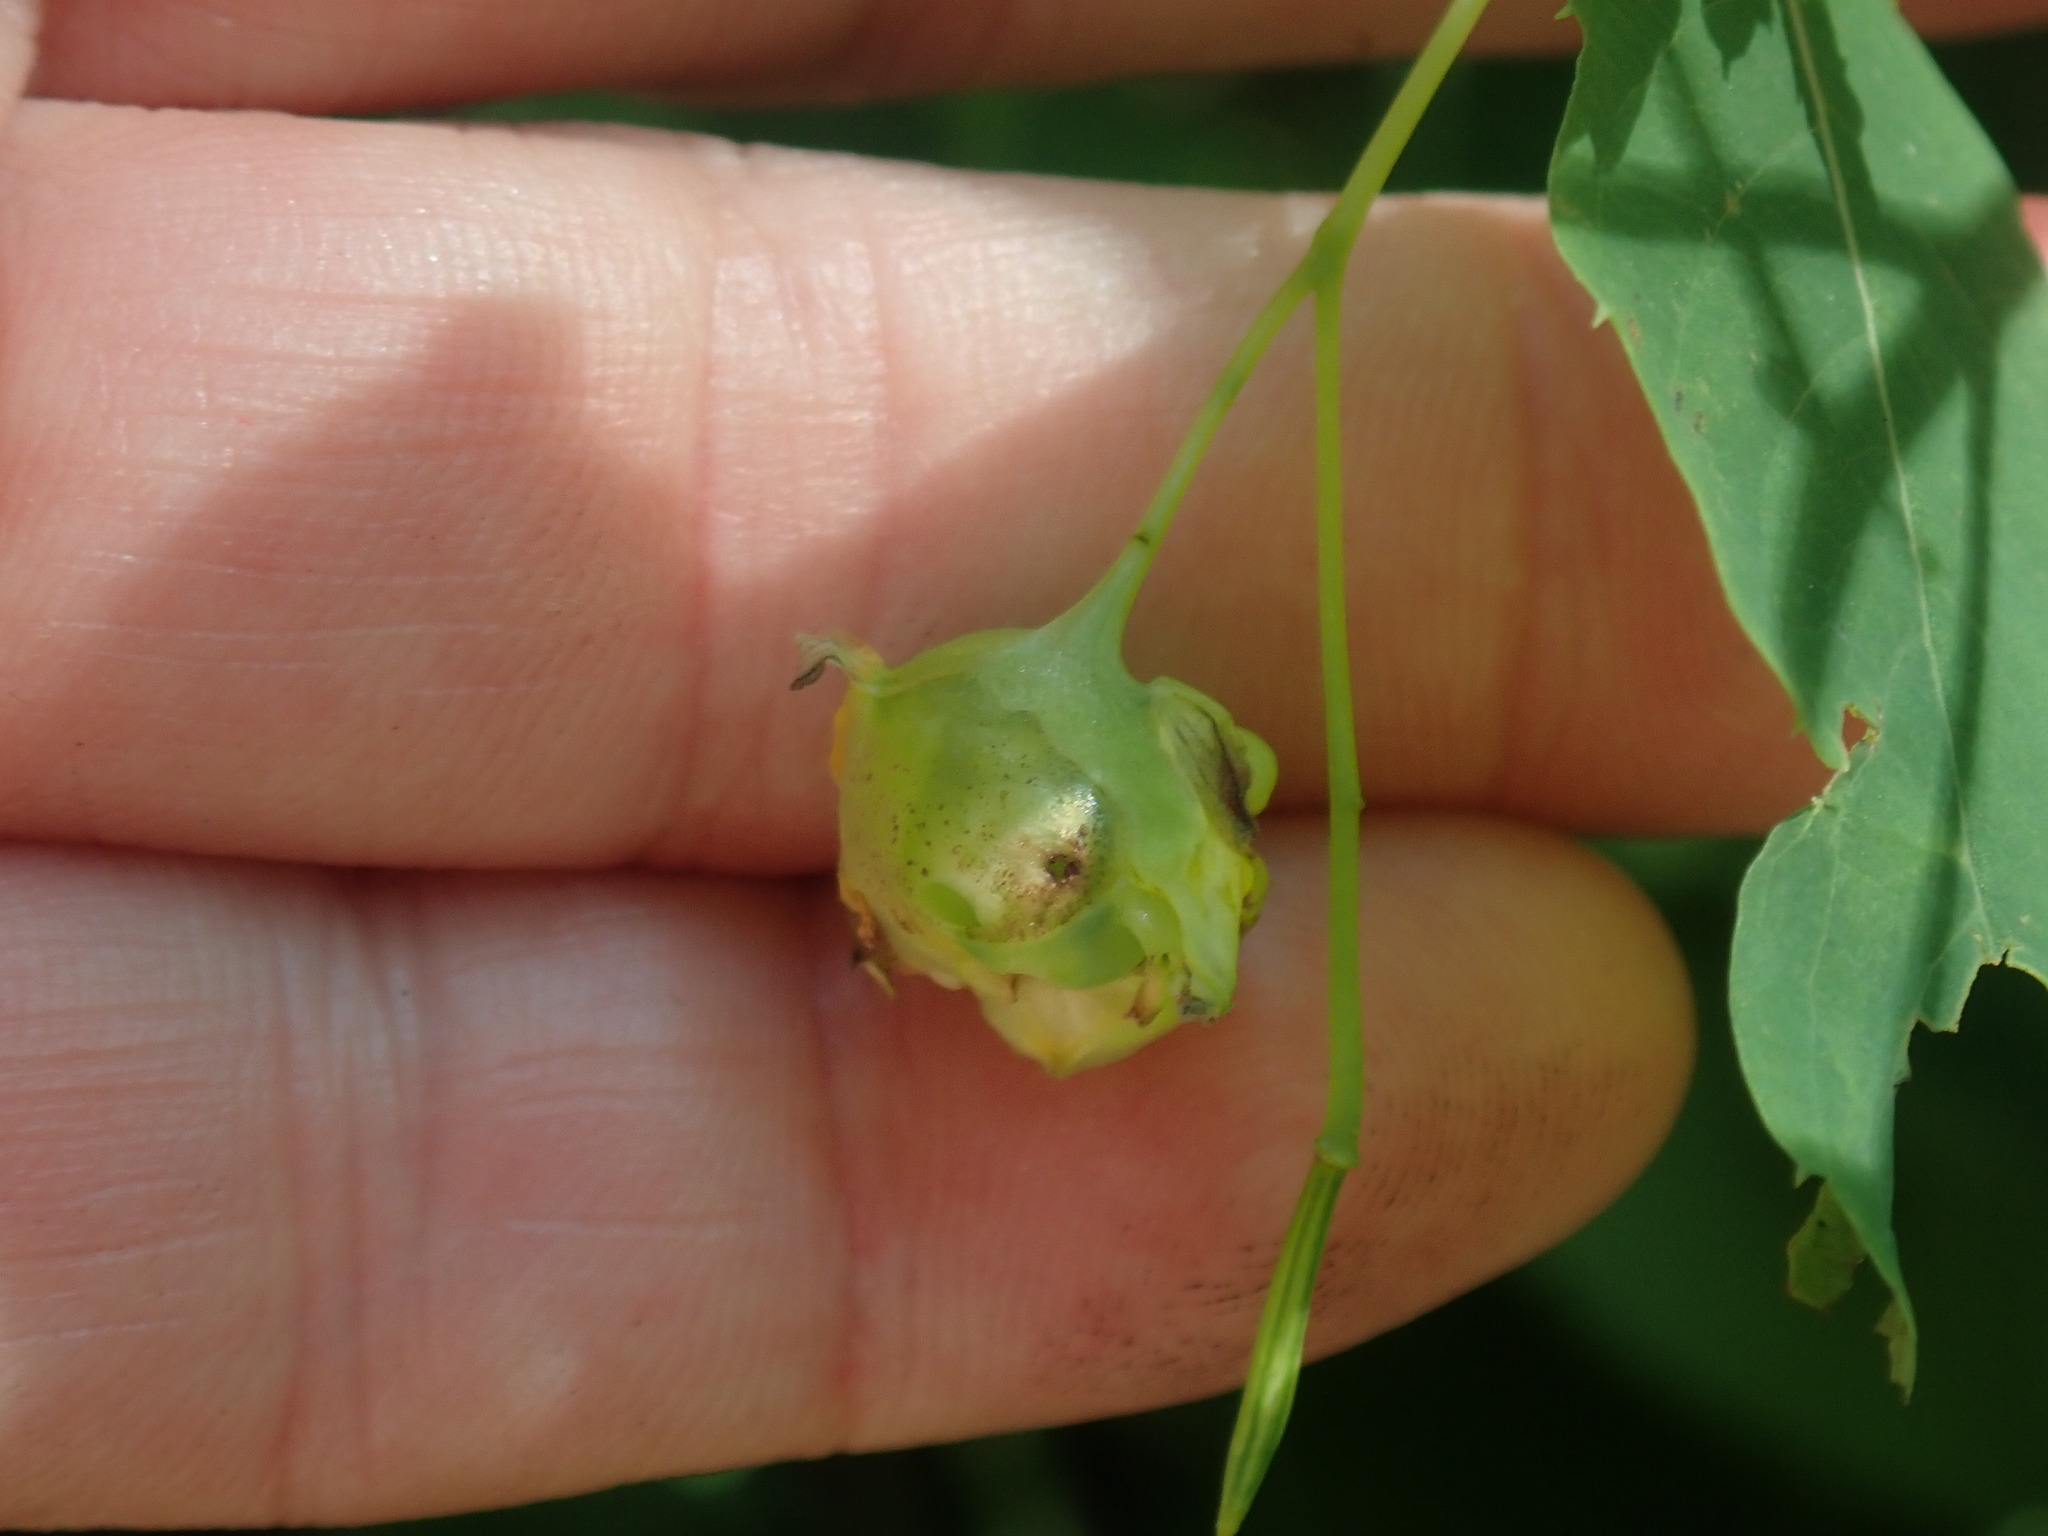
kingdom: Animalia
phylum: Arthropoda
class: Insecta
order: Diptera
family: Cecidomyiidae
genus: Schizomyia
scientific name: Schizomyia impatientis
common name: Jewelweed gall midge
